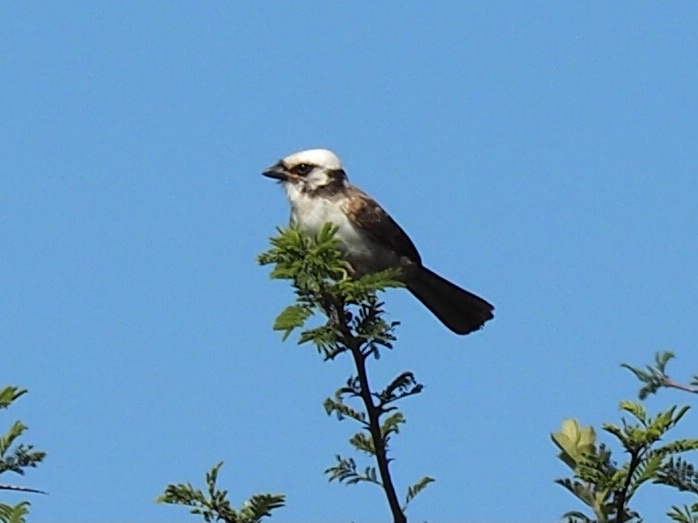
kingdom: Animalia
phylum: Chordata
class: Aves
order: Passeriformes
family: Laniidae
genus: Eurocephalus
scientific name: Eurocephalus anguitimens
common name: Southern white-crowned shrike
